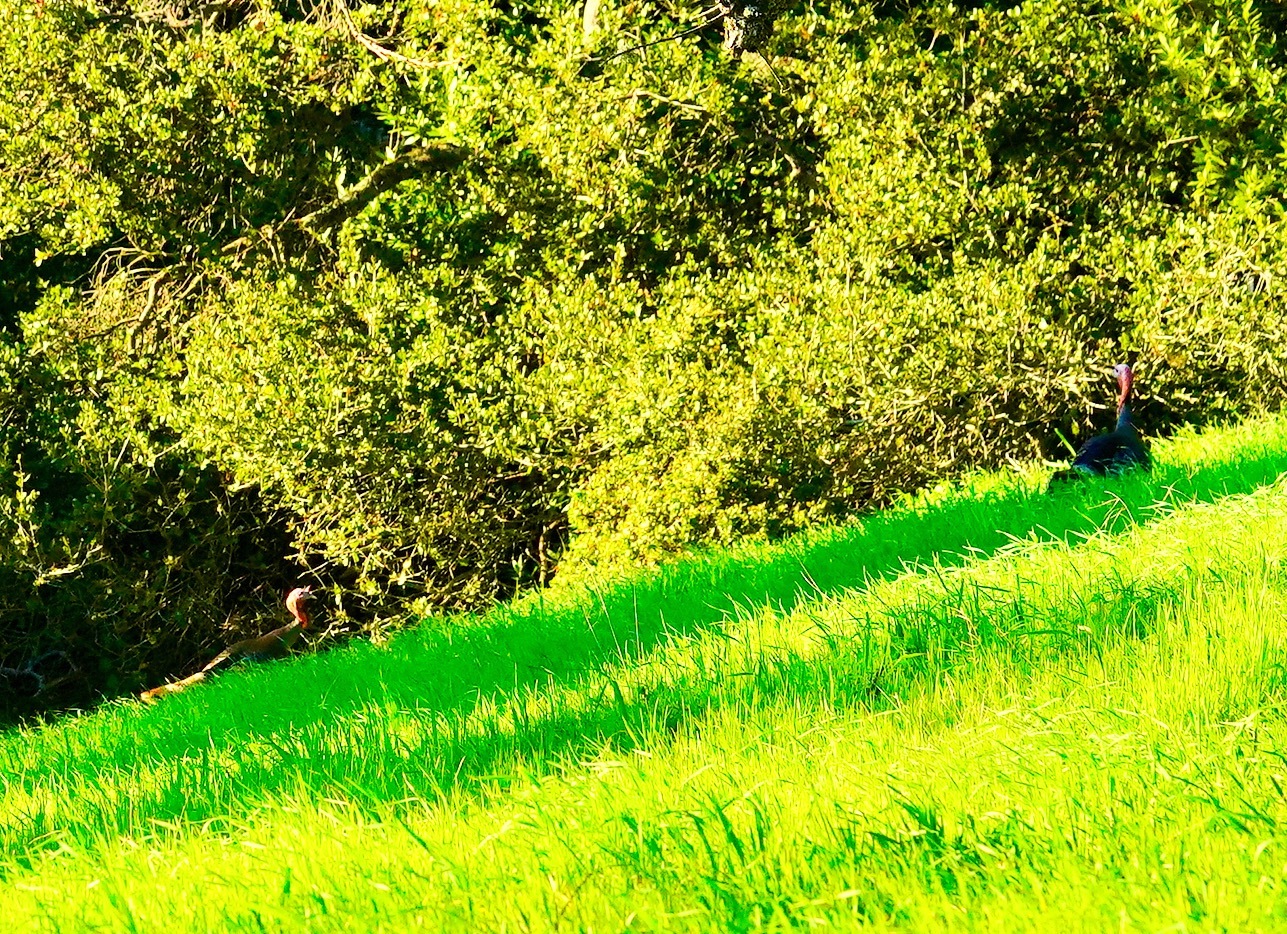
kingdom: Animalia
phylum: Chordata
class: Aves
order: Galliformes
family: Phasianidae
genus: Meleagris
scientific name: Meleagris gallopavo
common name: Wild turkey
